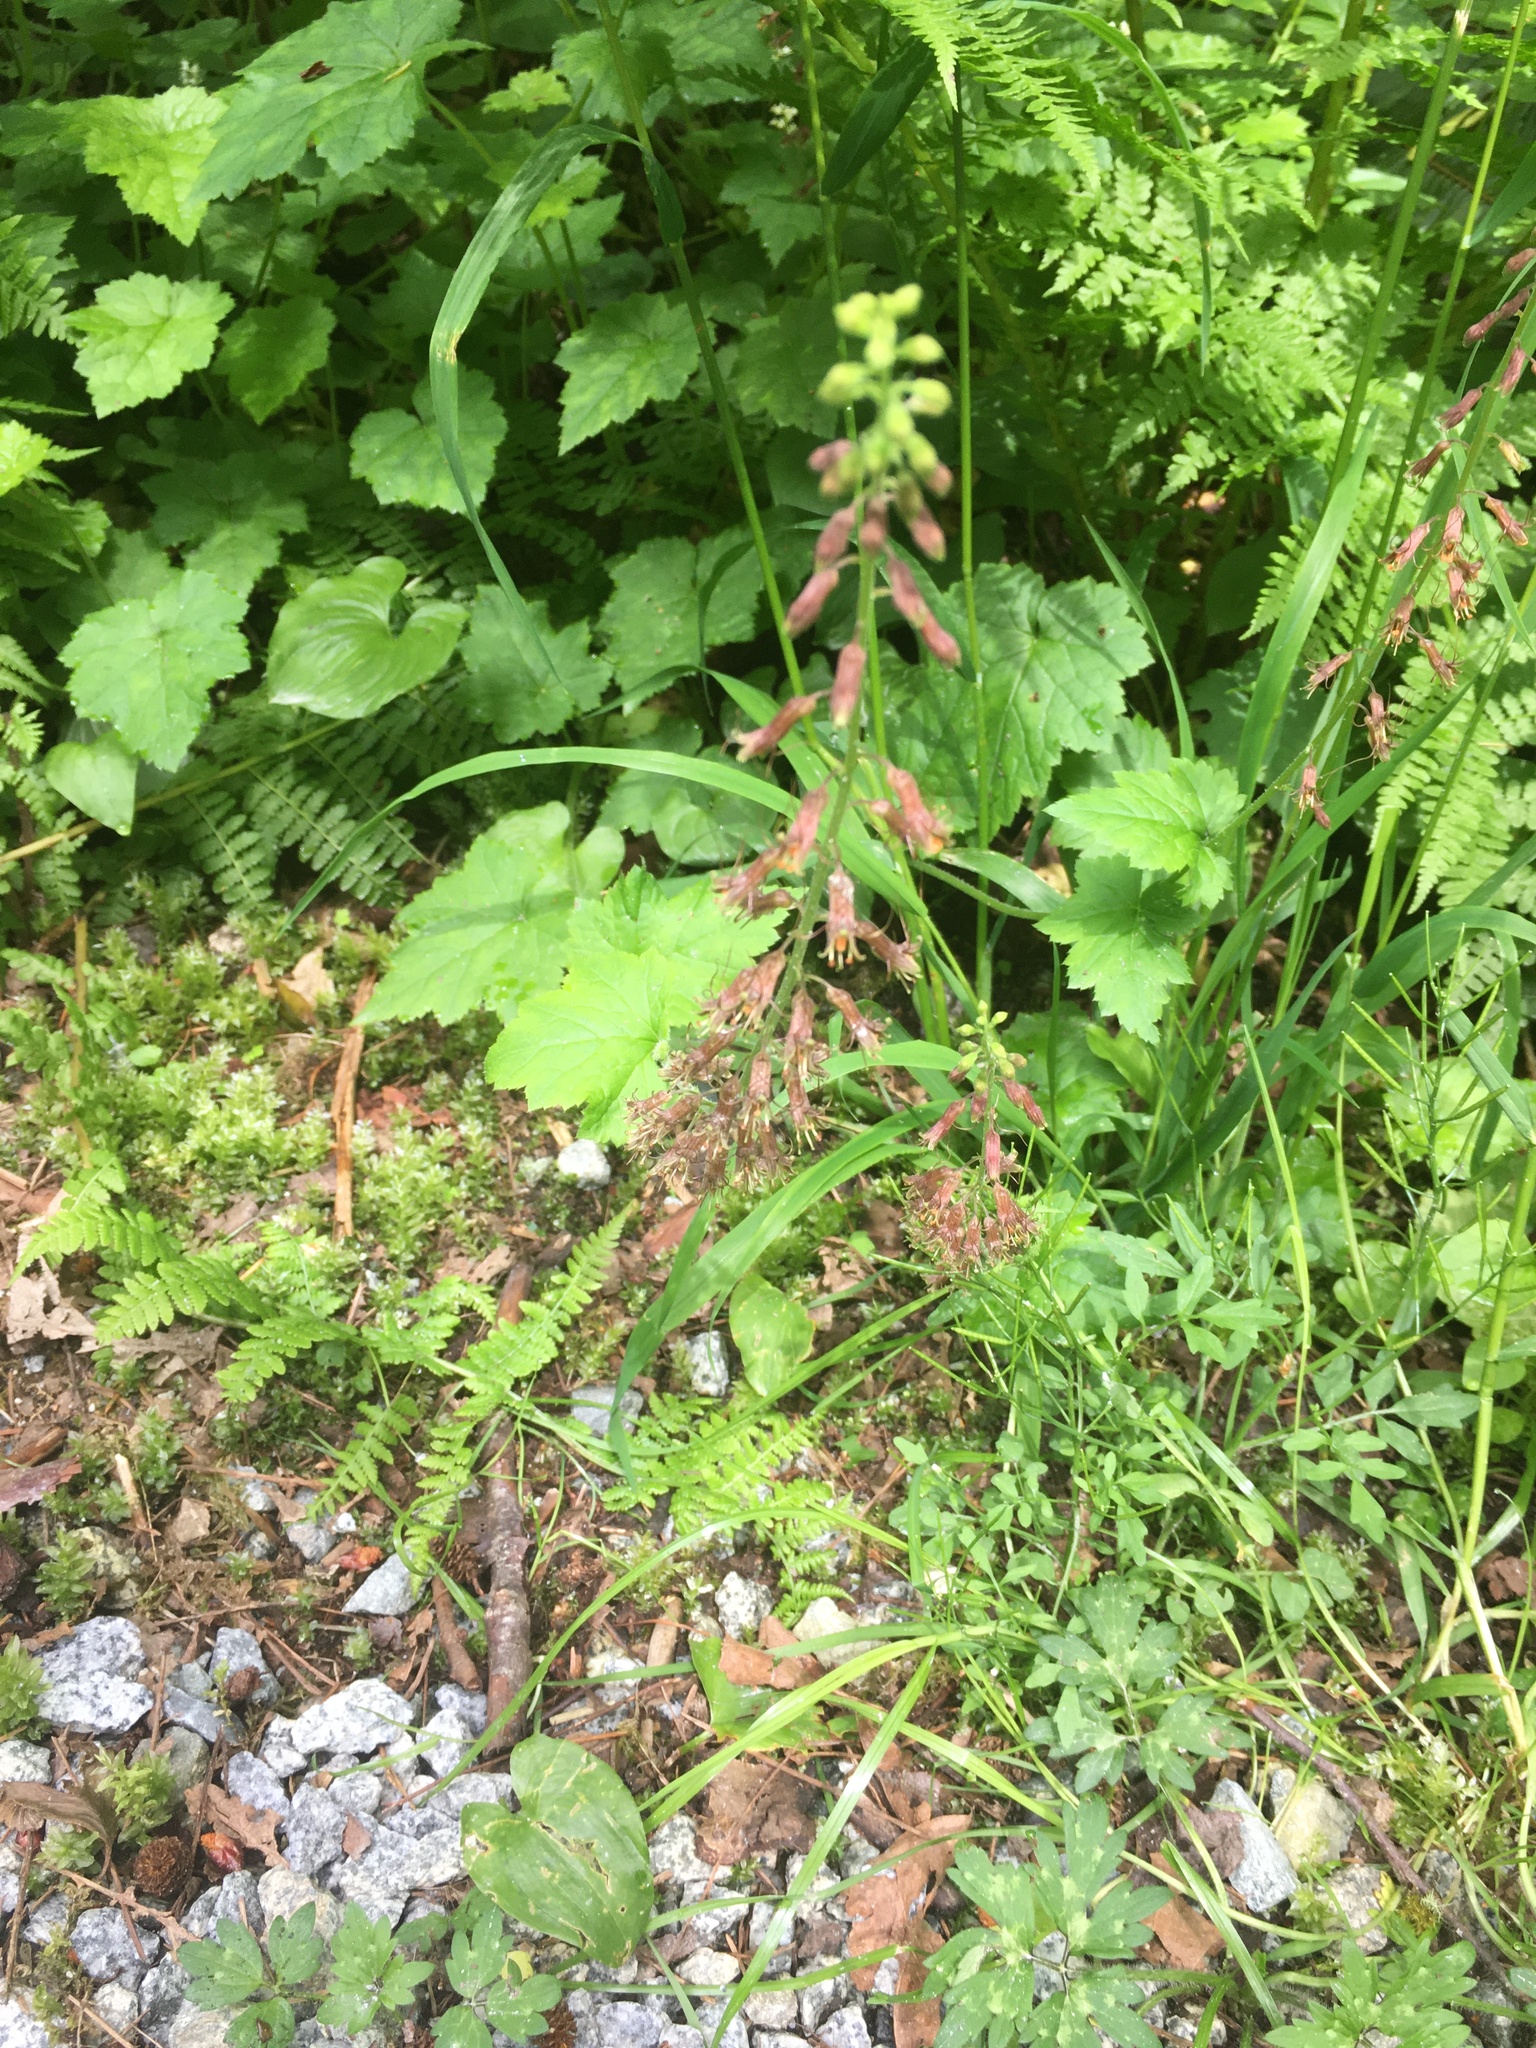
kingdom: Plantae
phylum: Tracheophyta
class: Magnoliopsida
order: Saxifragales
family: Saxifragaceae
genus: Tolmiea
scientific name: Tolmiea menziesii
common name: Pick-a-back-plant
